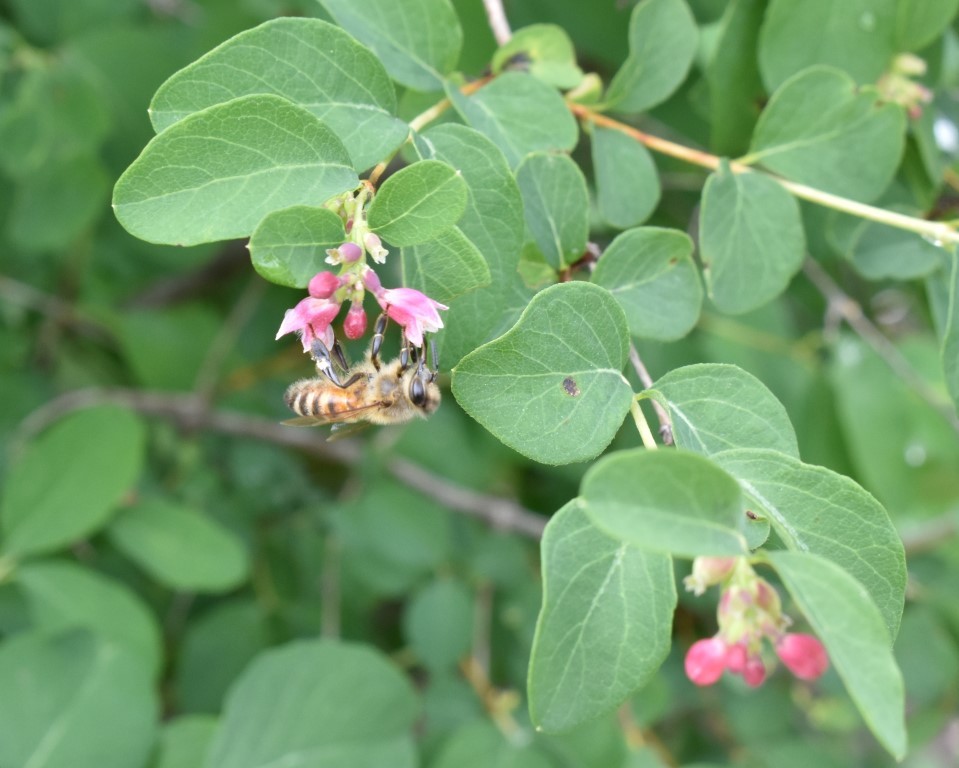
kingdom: Animalia
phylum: Arthropoda
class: Insecta
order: Hymenoptera
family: Apidae
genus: Apis
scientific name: Apis mellifera
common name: Honey bee
